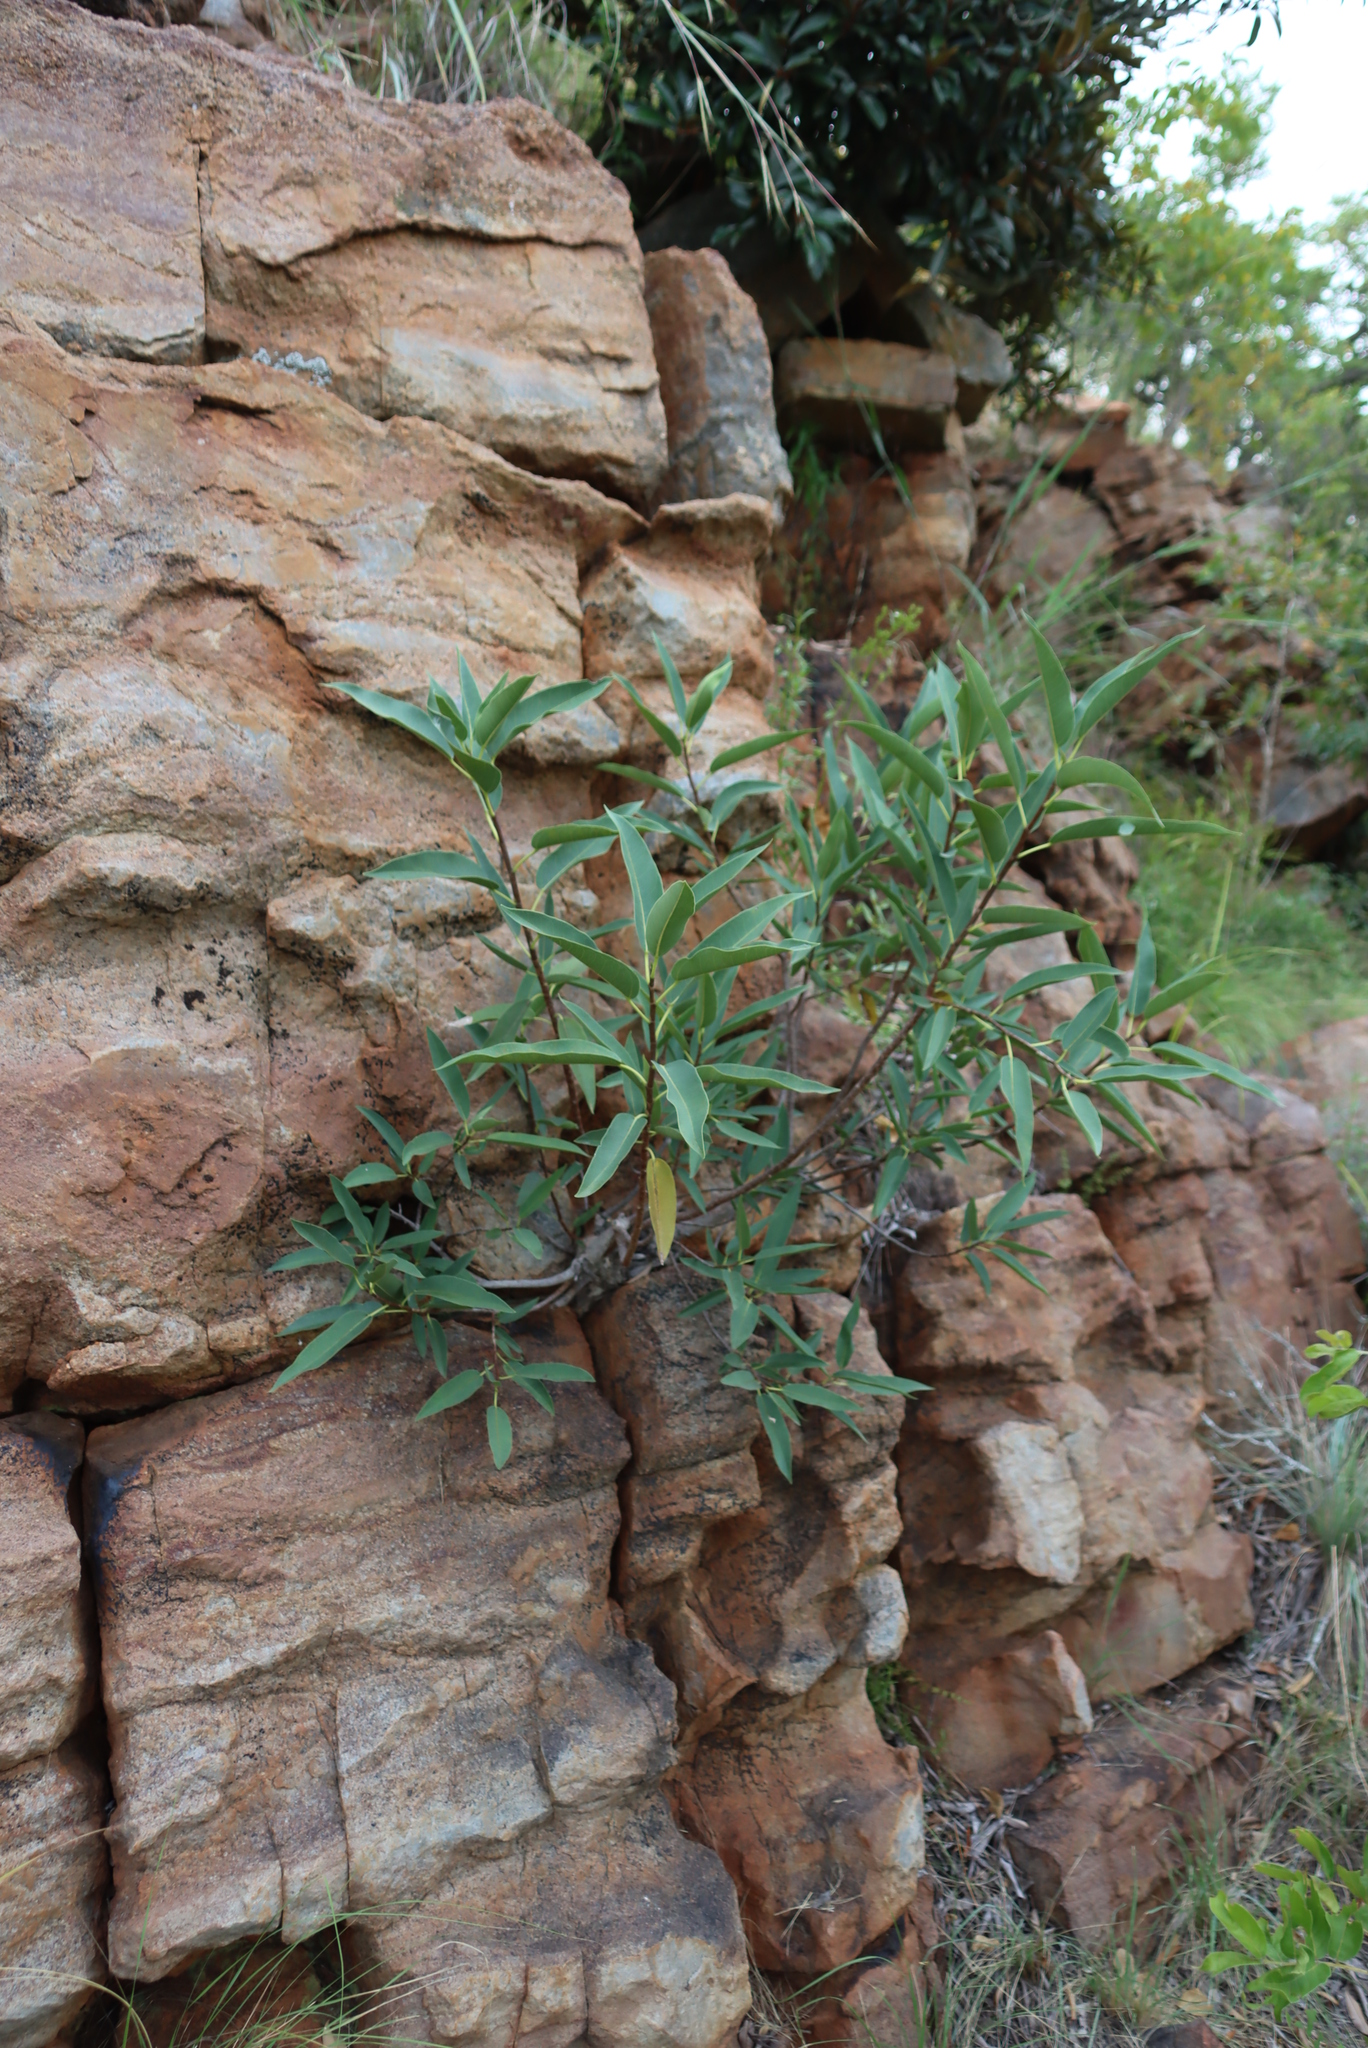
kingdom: Plantae
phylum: Tracheophyta
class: Magnoliopsida
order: Rosales
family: Moraceae
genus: Ficus
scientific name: Ficus salicifolia
